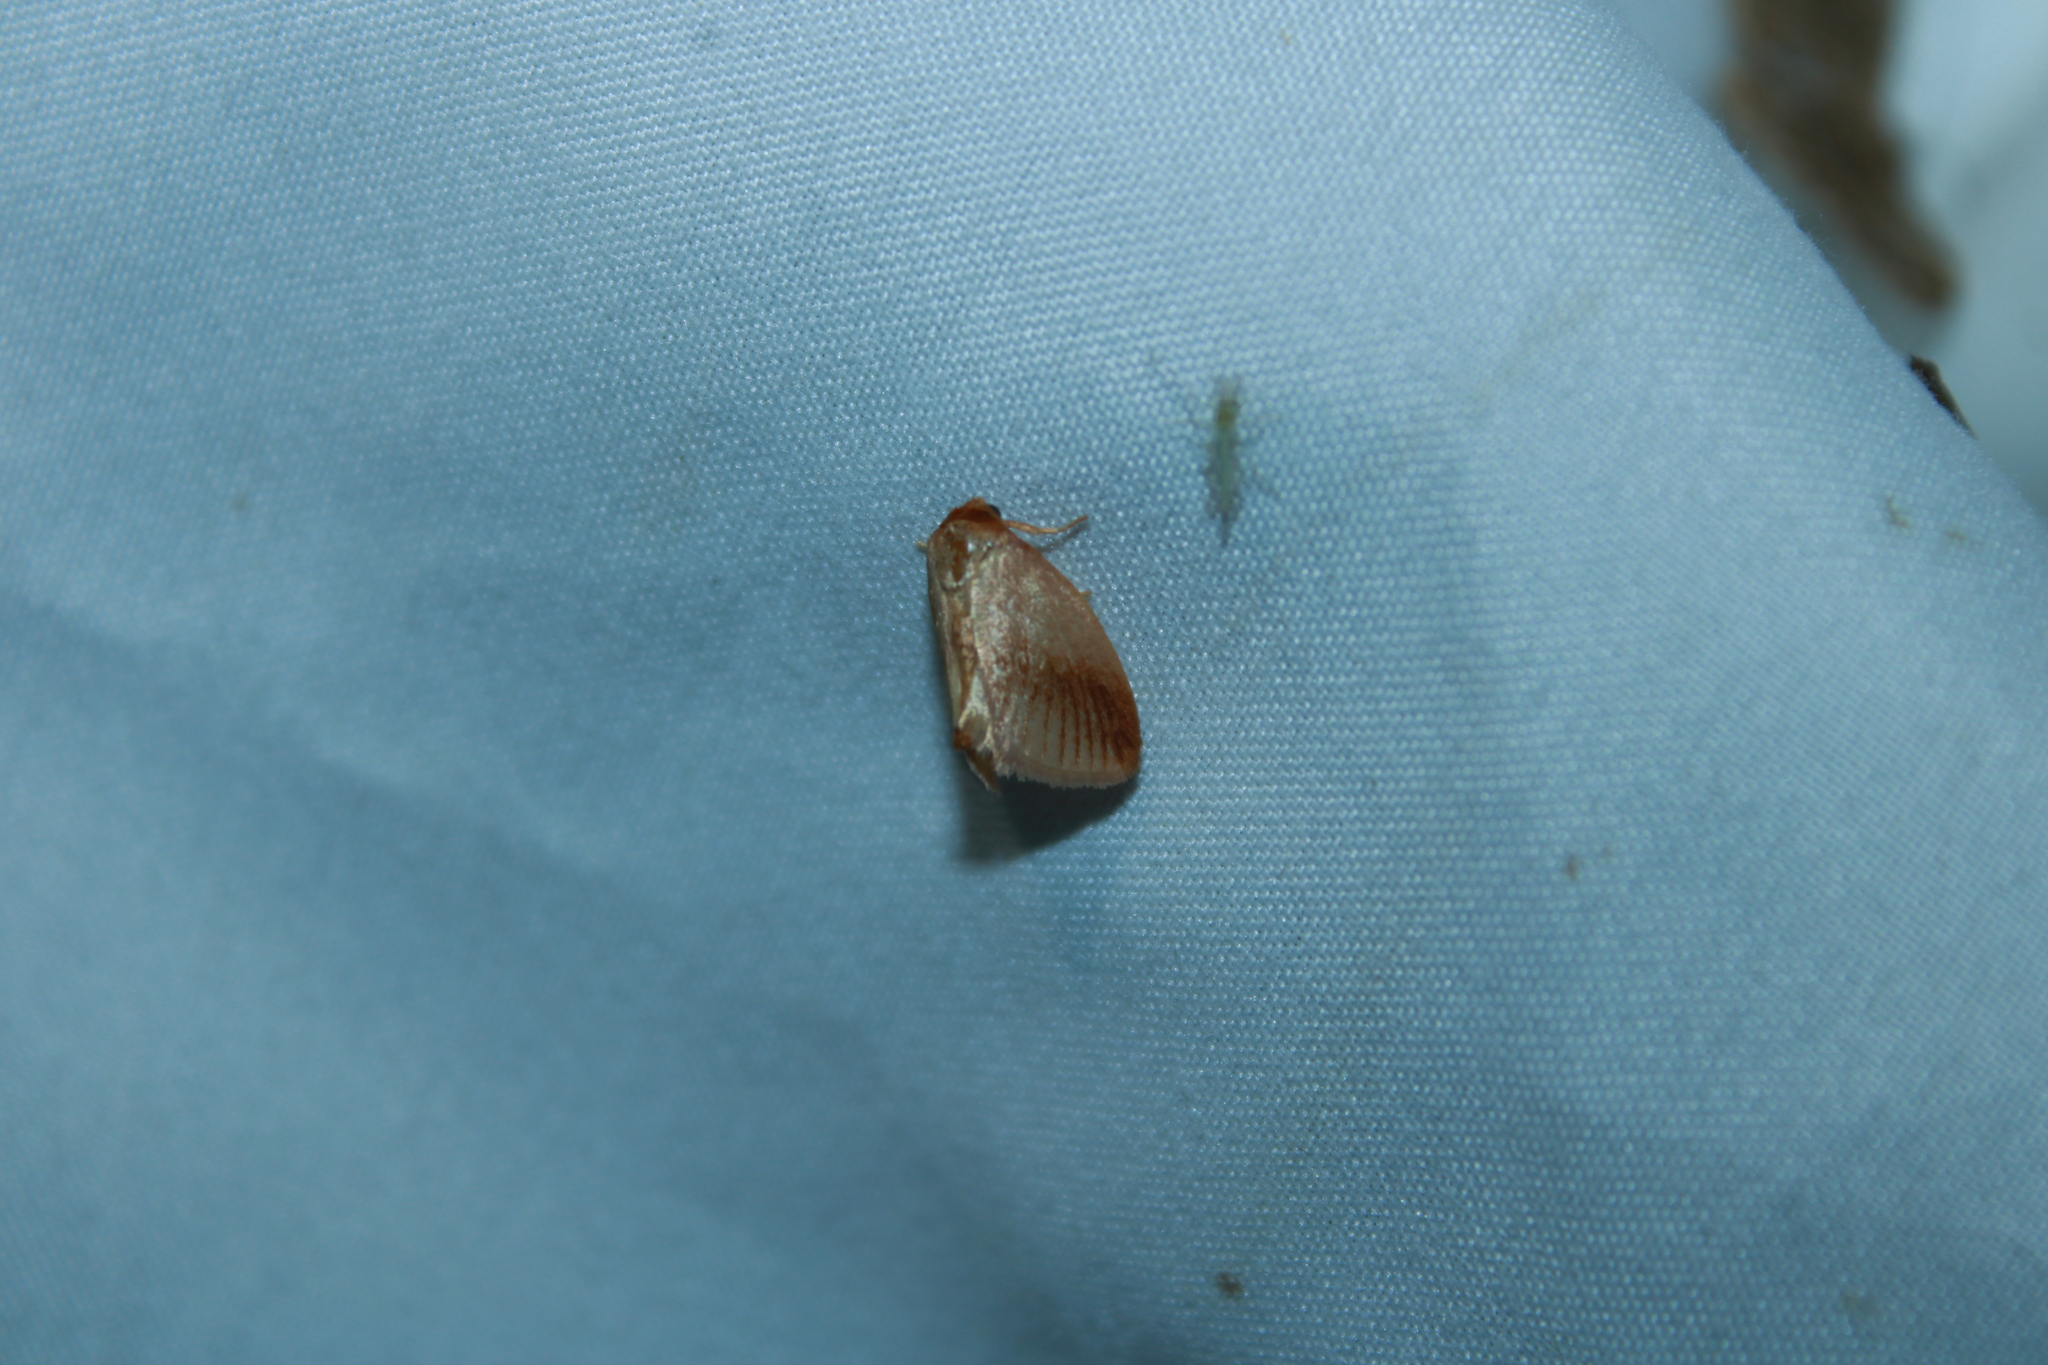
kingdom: Animalia
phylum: Arthropoda
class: Insecta
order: Lepidoptera
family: Limacodidae
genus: Tortricidia
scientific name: Tortricidia testacea
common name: Early button slug moth
